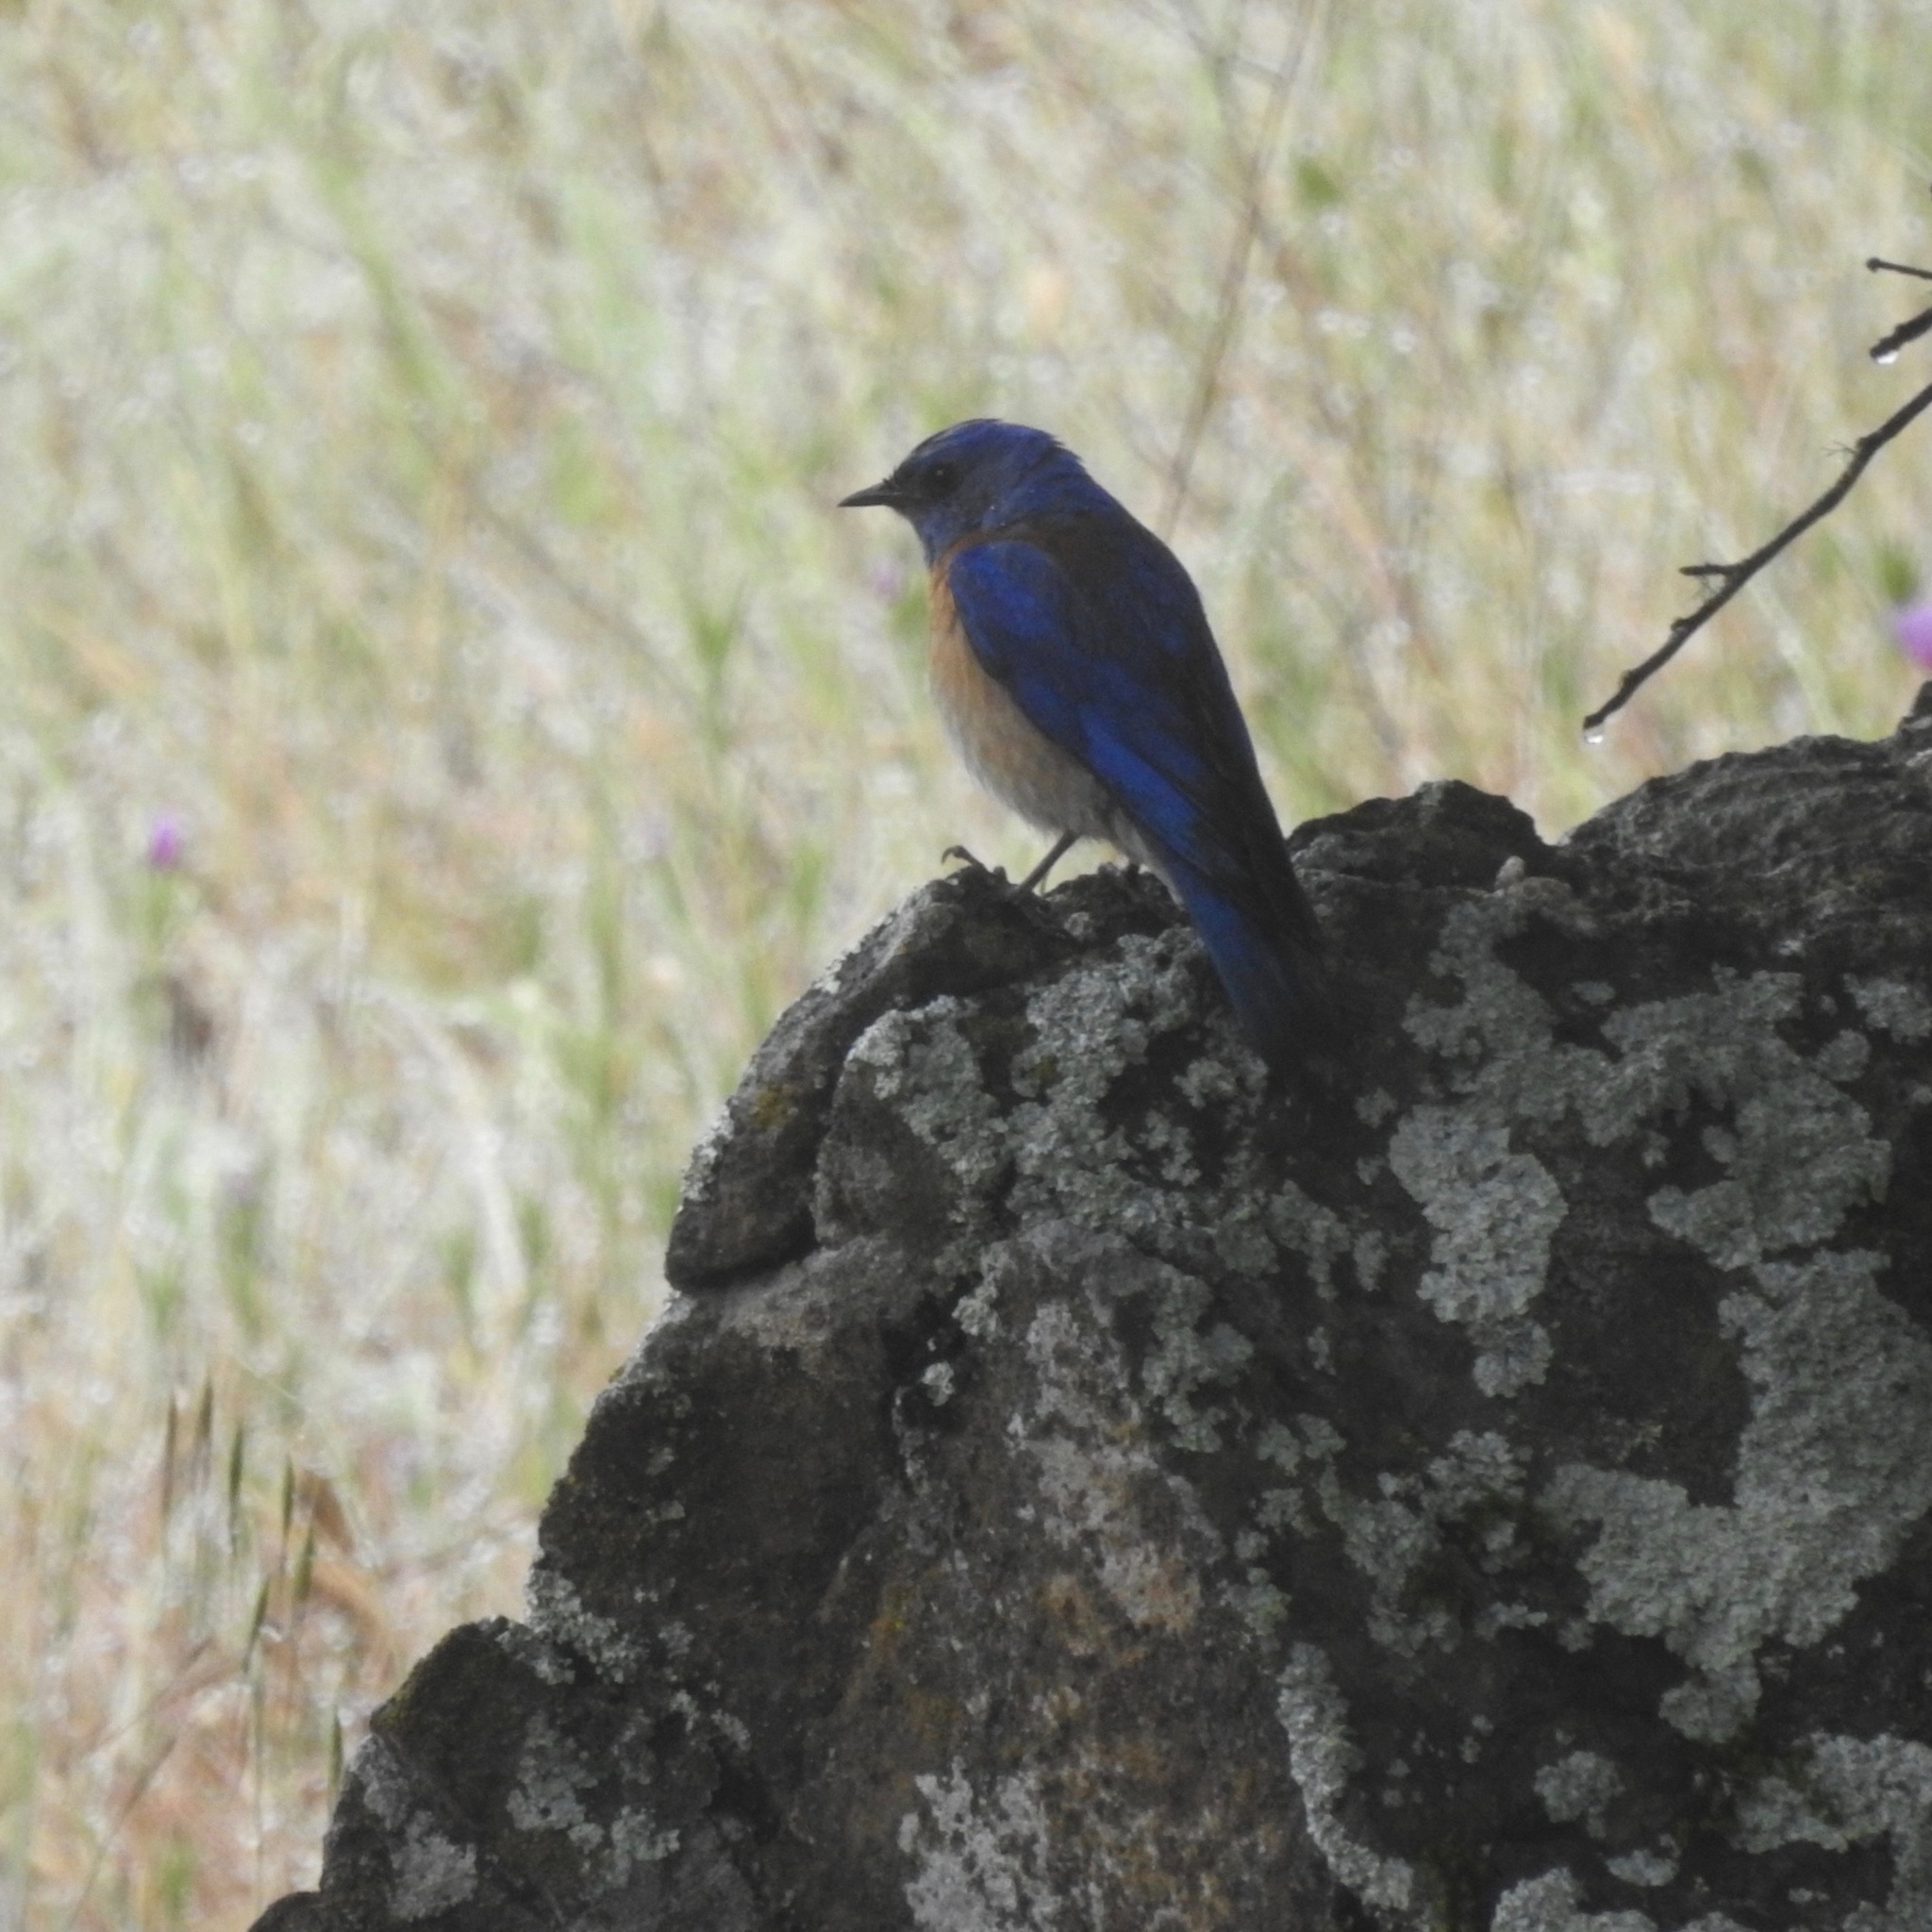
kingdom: Animalia
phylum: Chordata
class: Aves
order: Passeriformes
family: Turdidae
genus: Sialia
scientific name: Sialia mexicana
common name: Western bluebird
